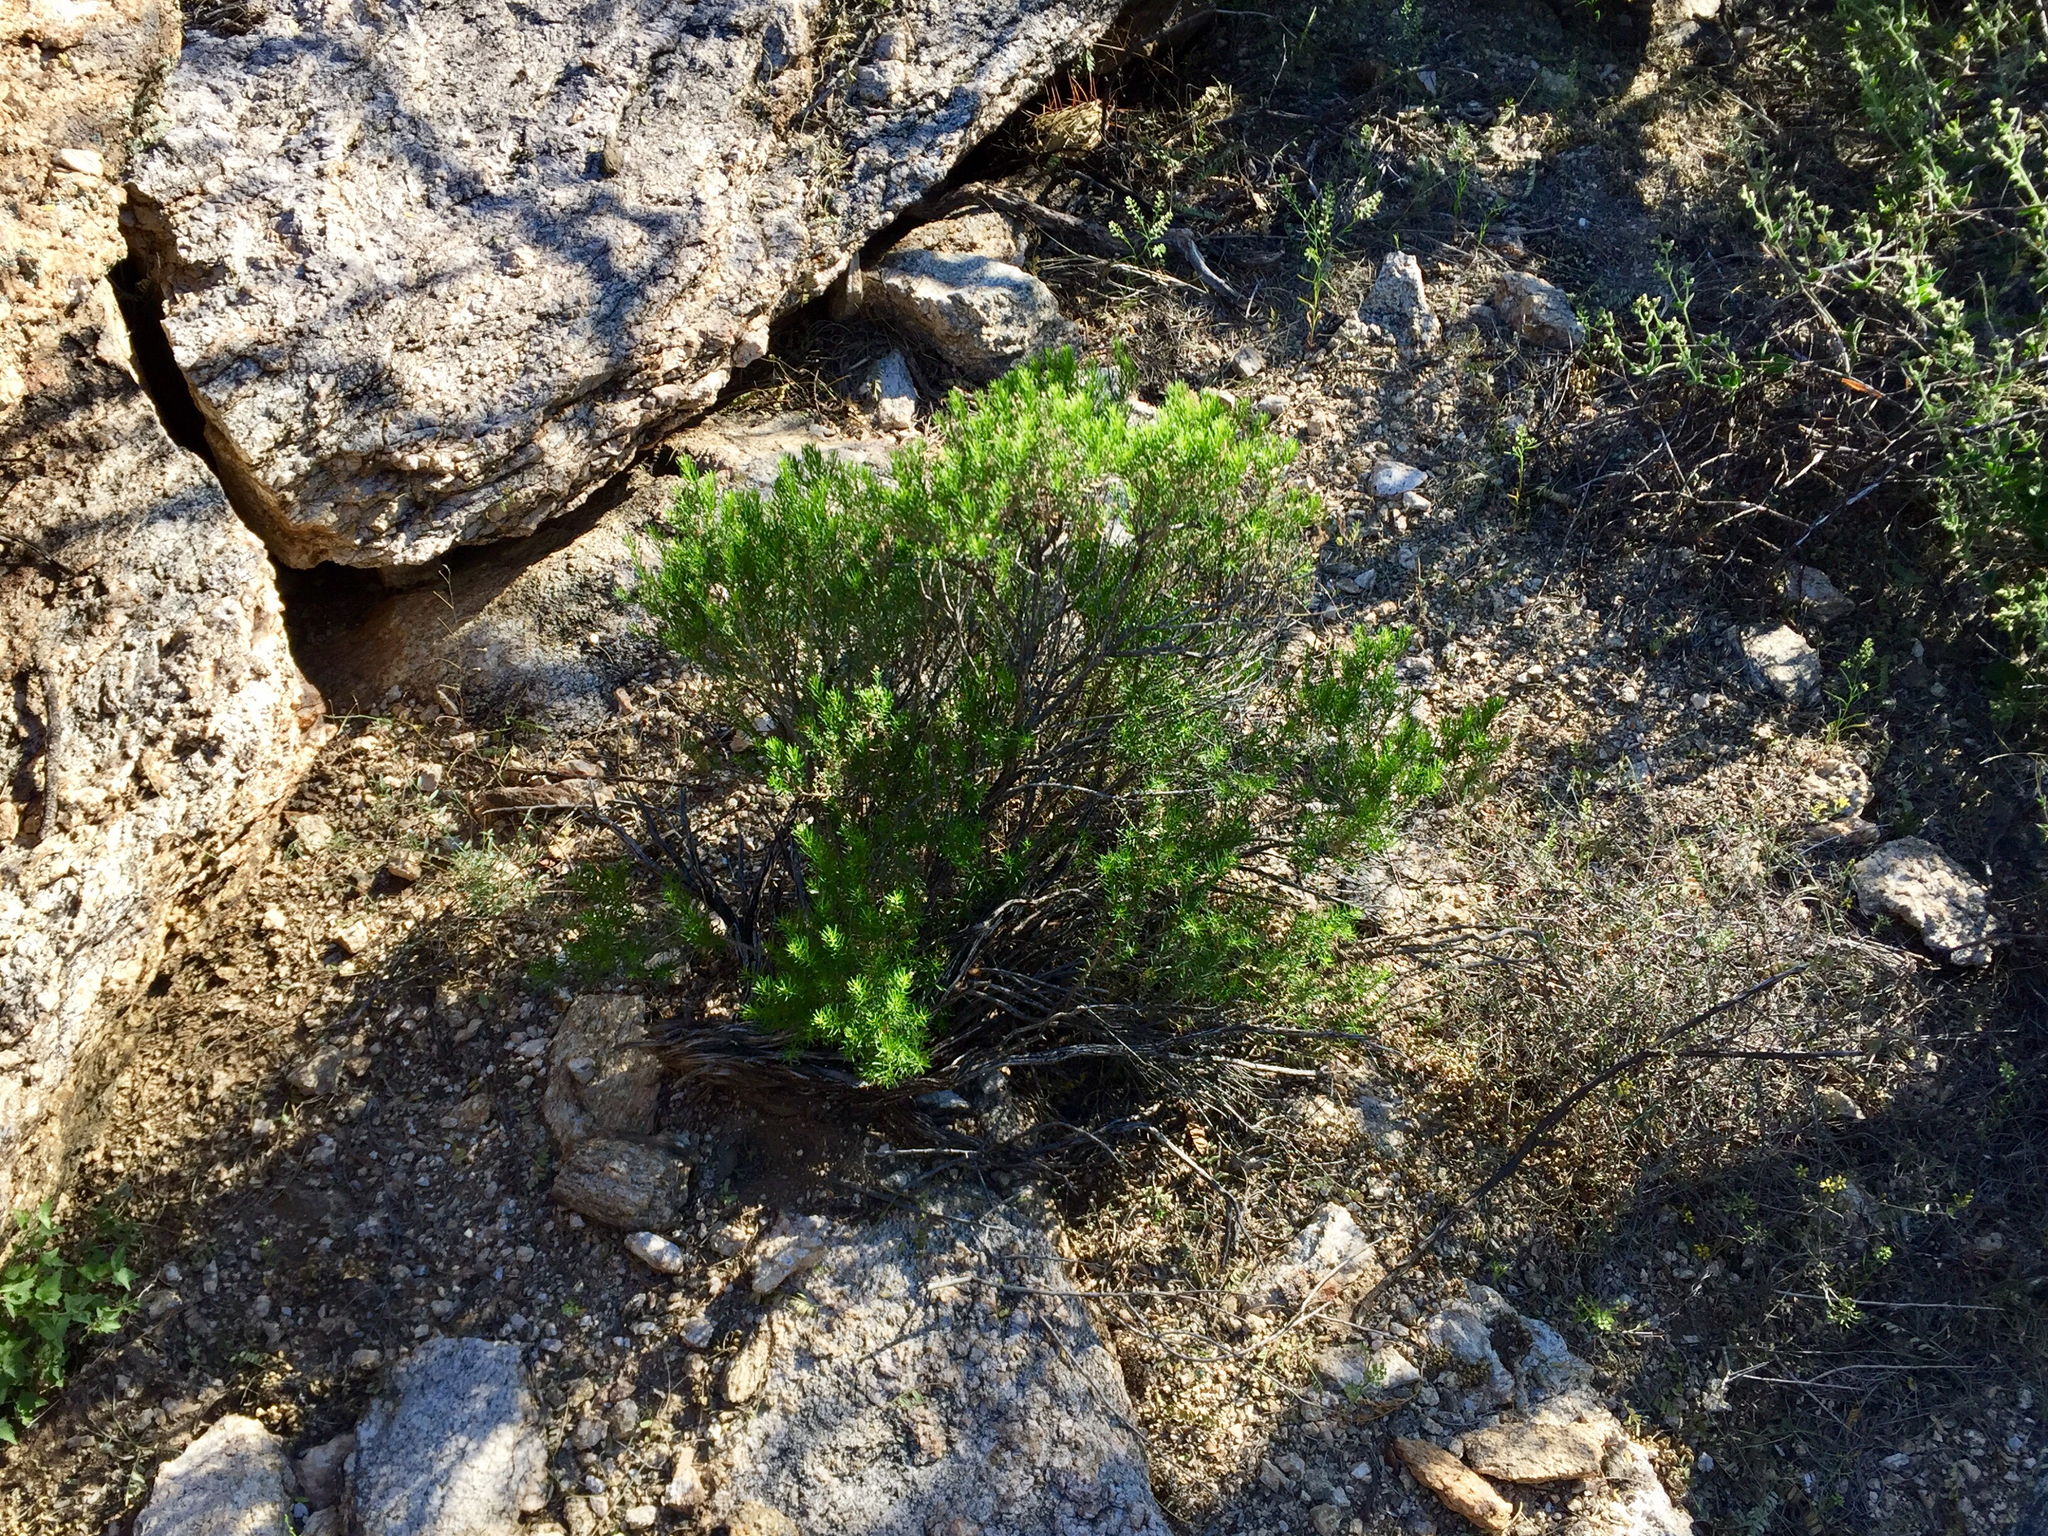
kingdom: Plantae
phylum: Tracheophyta
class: Magnoliopsida
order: Asterales
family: Asteraceae
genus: Ericameria
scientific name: Ericameria laricifolia
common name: Turpentine-bush
